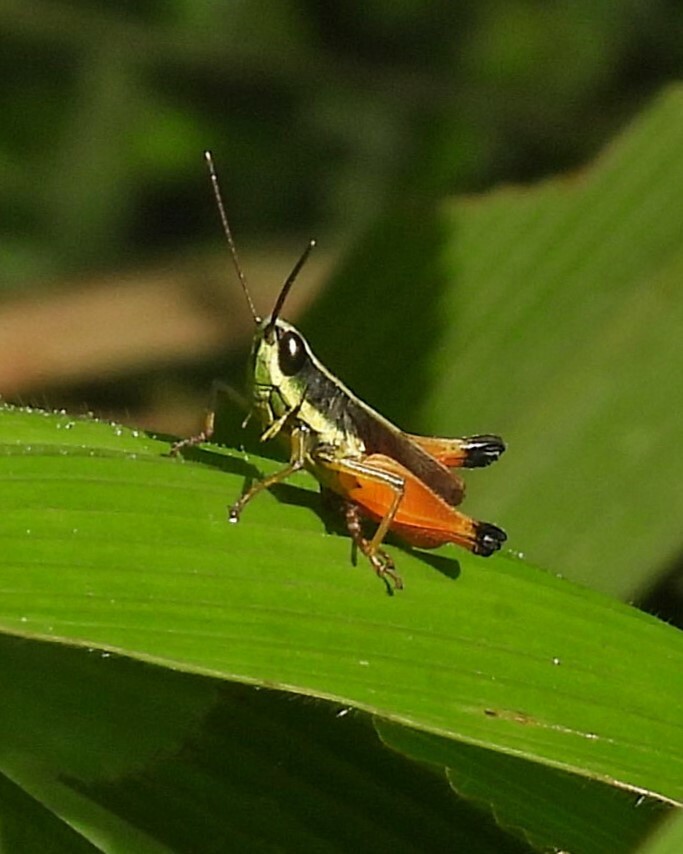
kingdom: Animalia
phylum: Arthropoda
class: Insecta
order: Orthoptera
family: Acrididae
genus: Amblytropidia
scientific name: Amblytropidia sola
